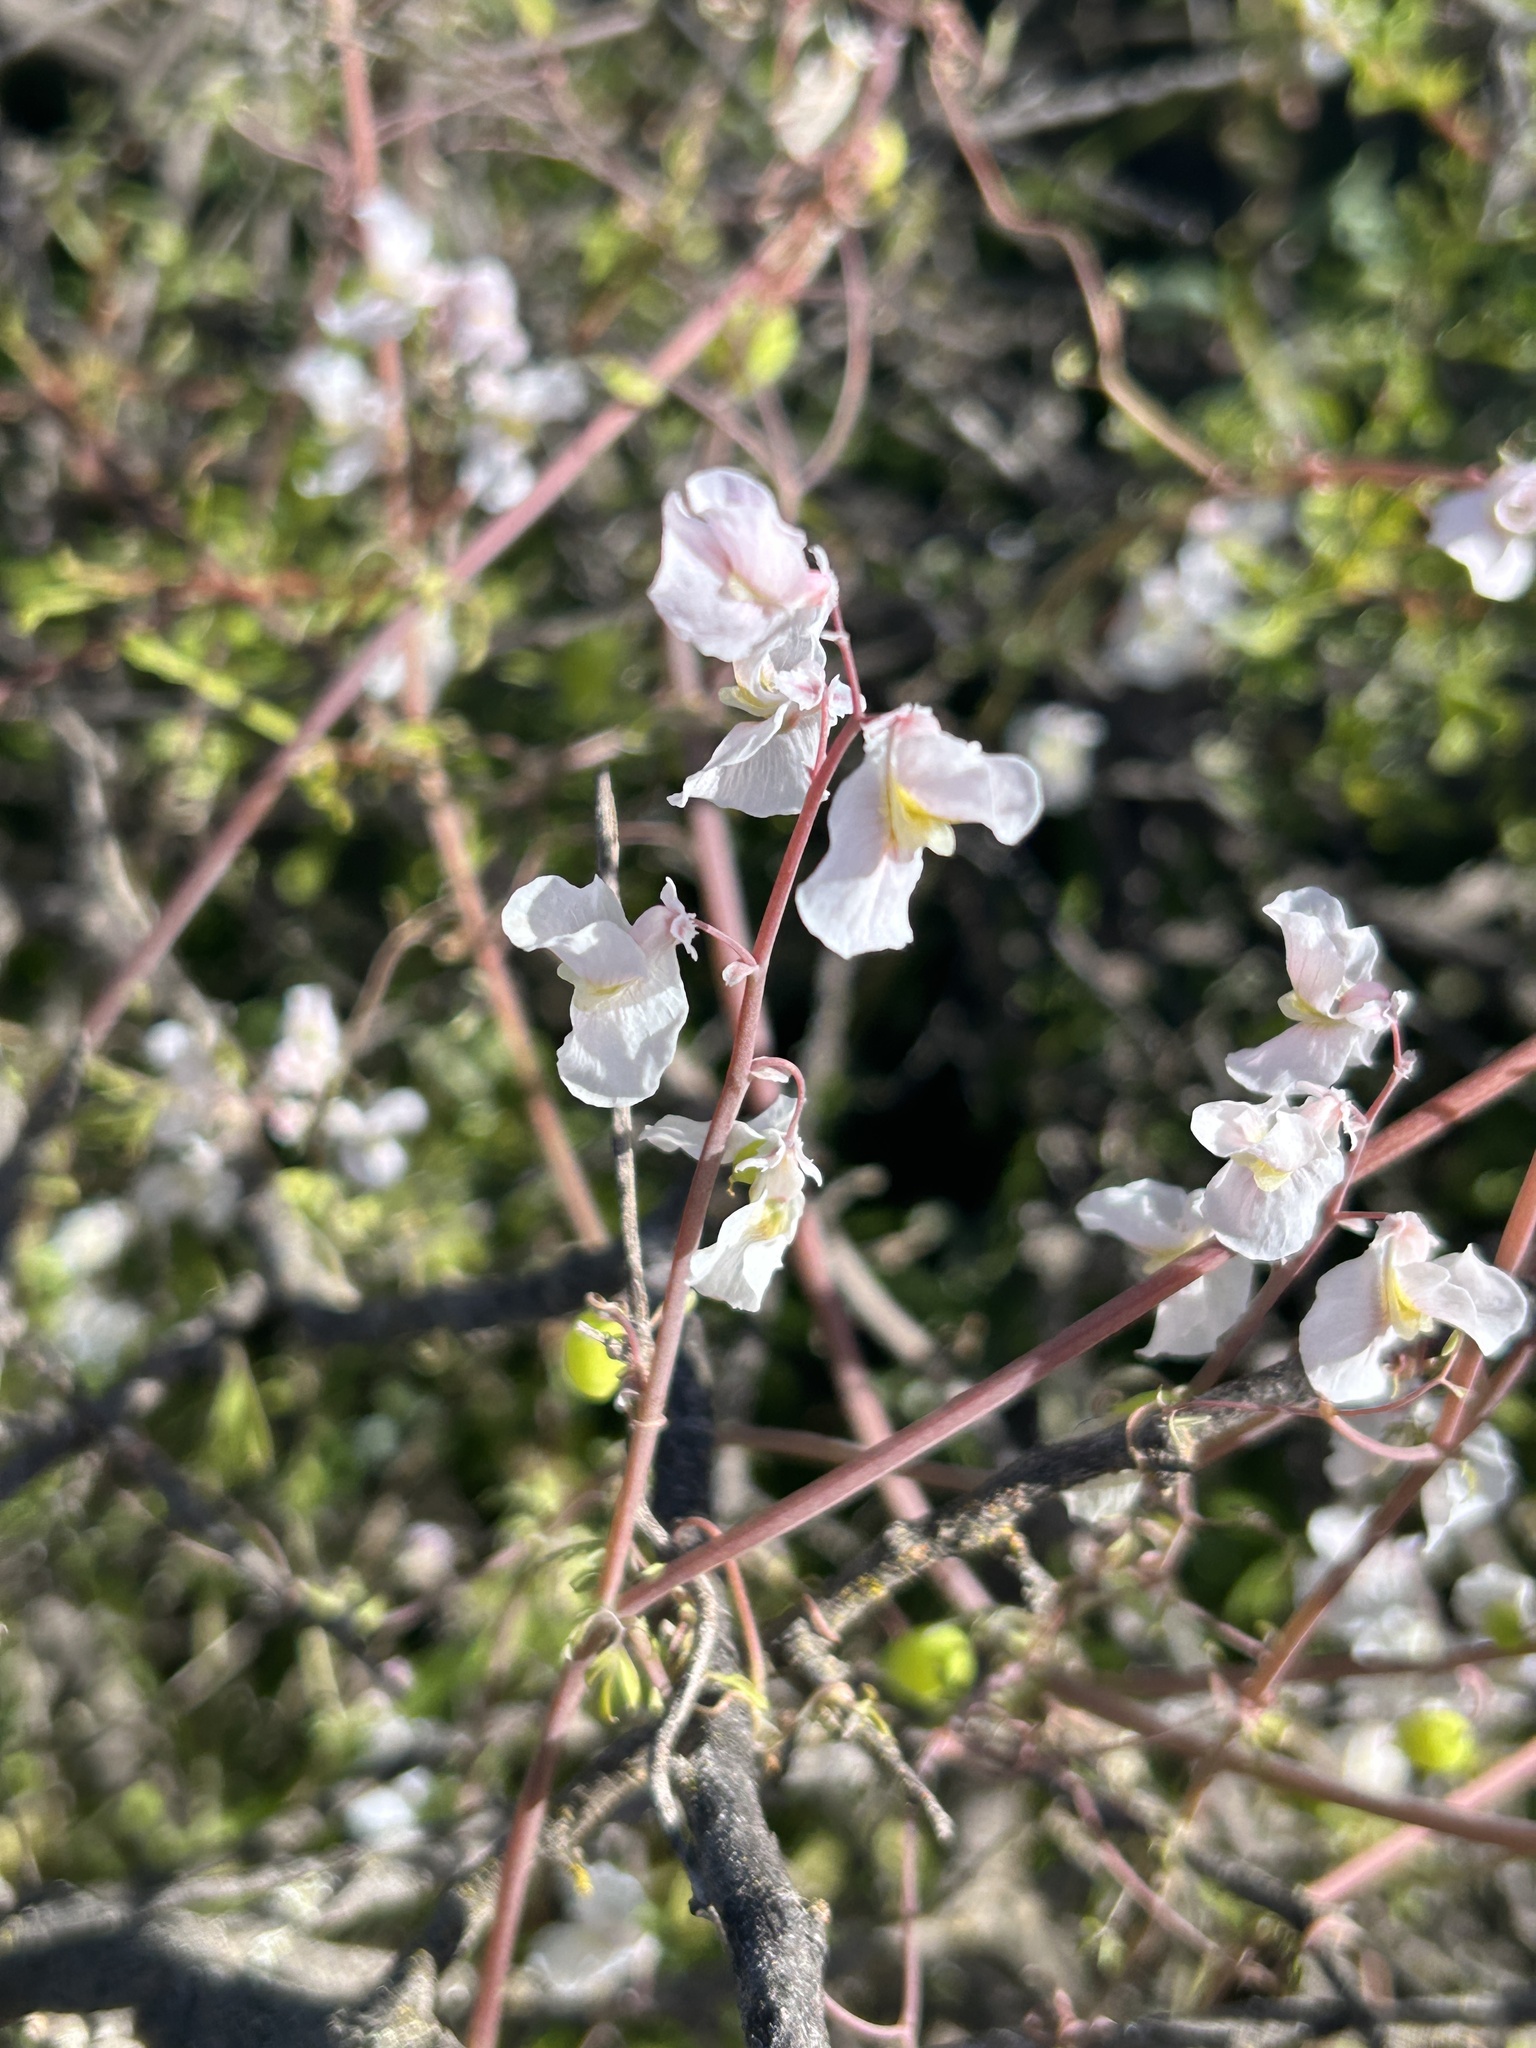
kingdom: Plantae
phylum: Tracheophyta
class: Magnoliopsida
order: Ranunculales
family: Papaveraceae
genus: Cysticapnos
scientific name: Cysticapnos vesicaria
